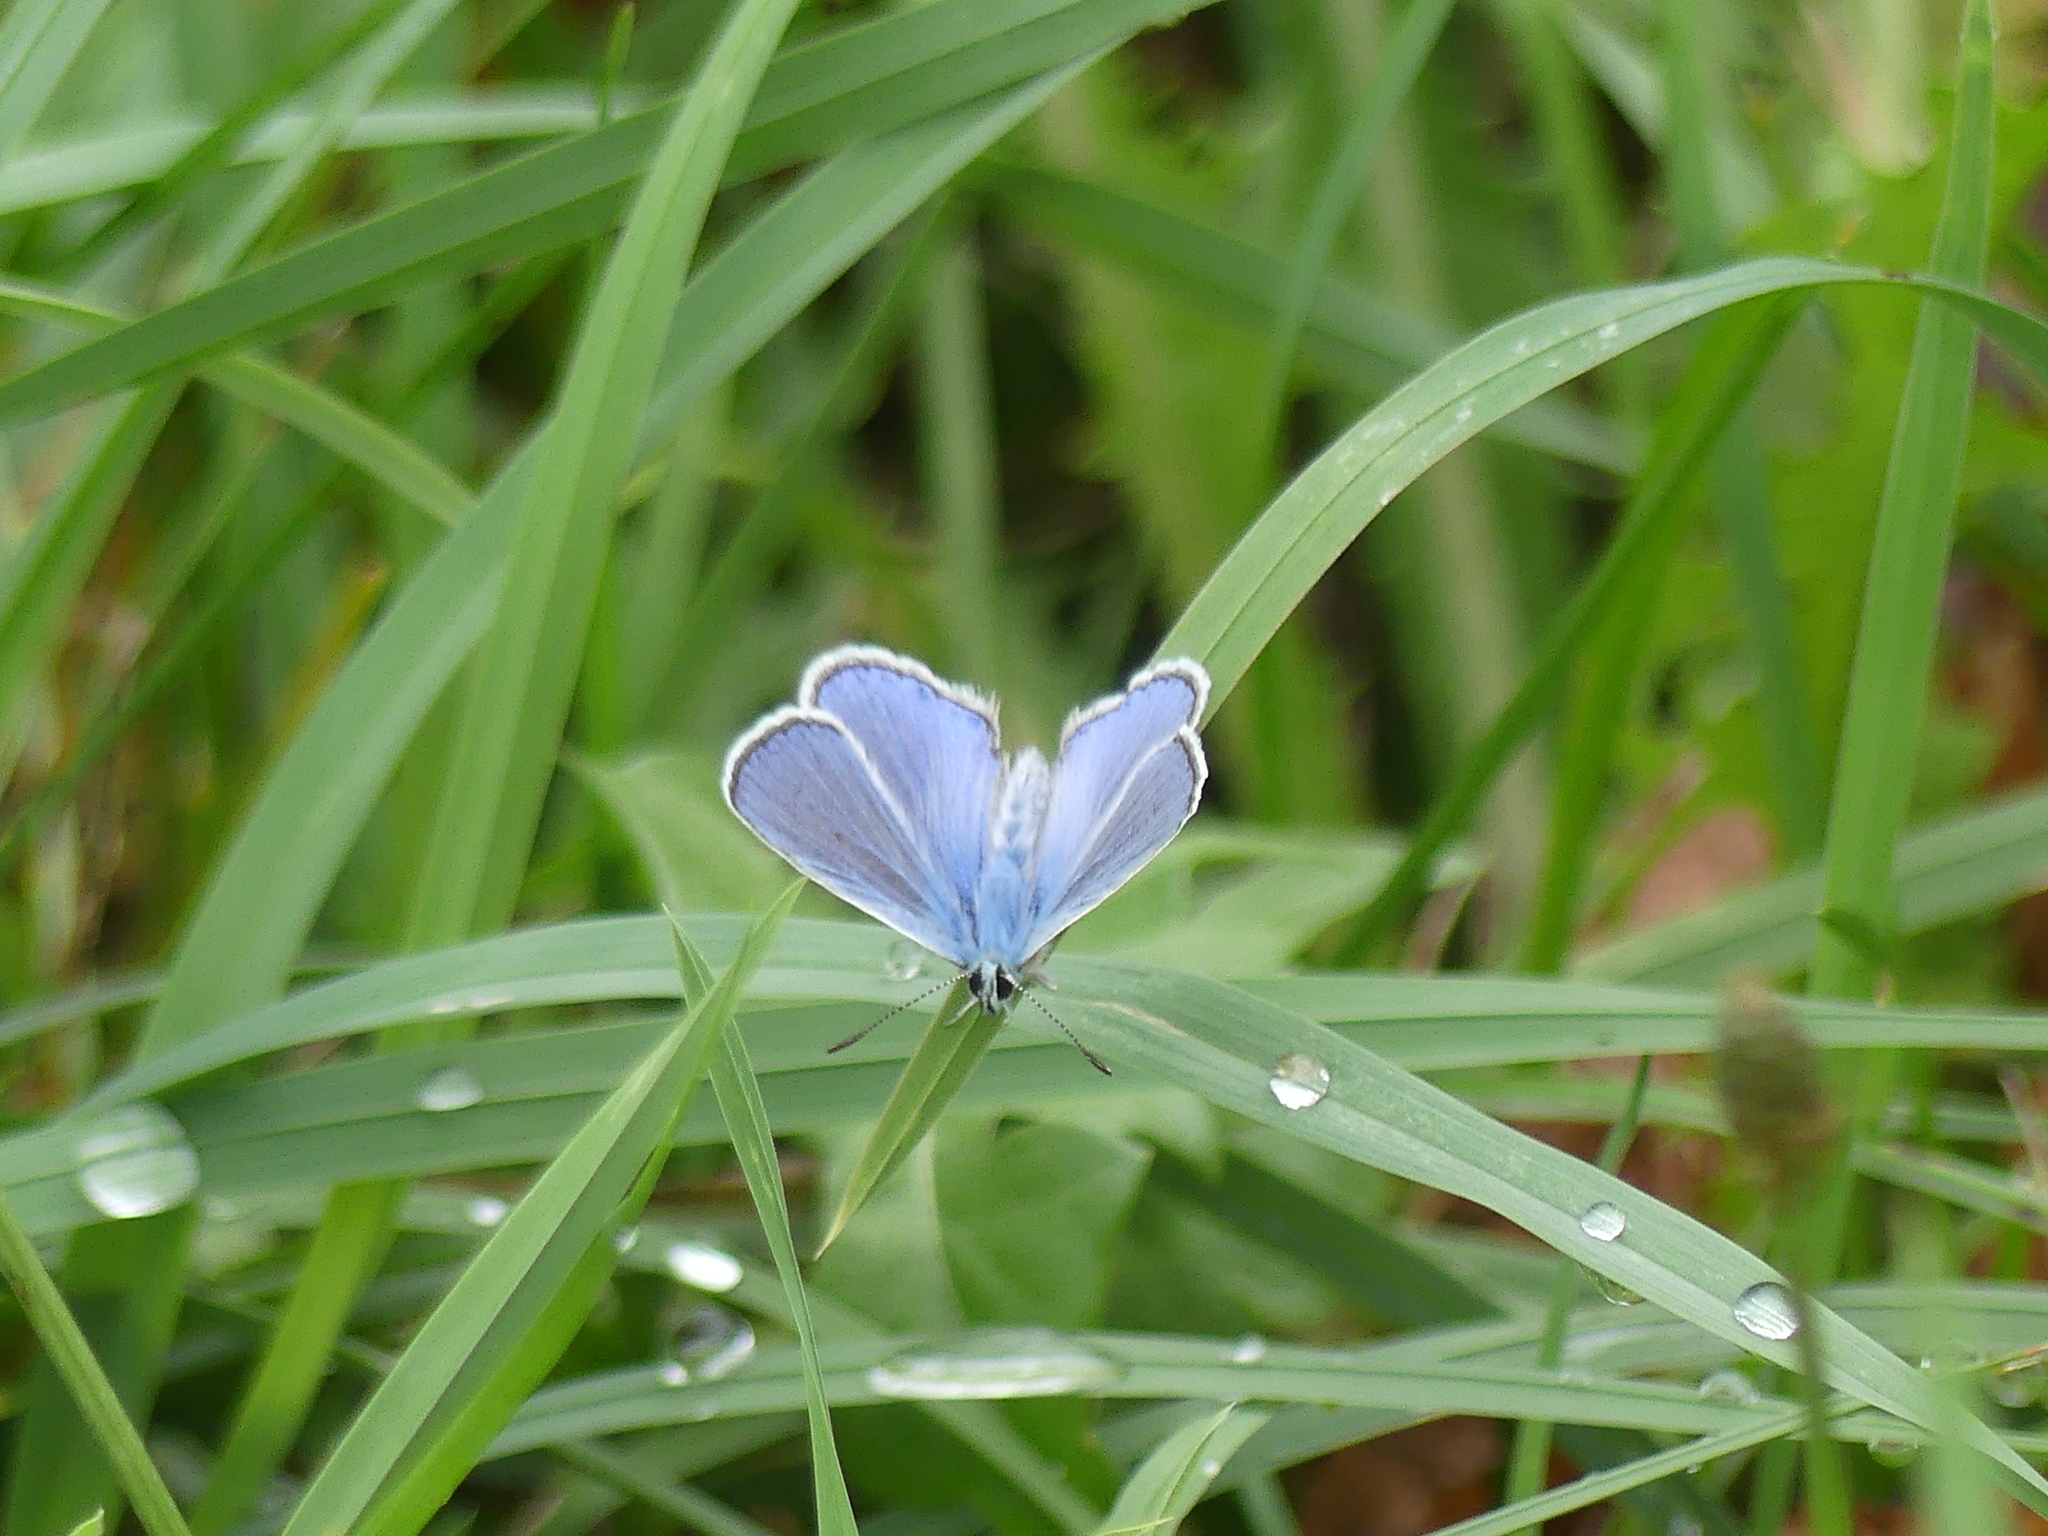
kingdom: Animalia
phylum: Arthropoda
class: Insecta
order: Lepidoptera
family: Lycaenidae
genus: Polyommatus
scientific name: Polyommatus icarus
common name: Common blue
